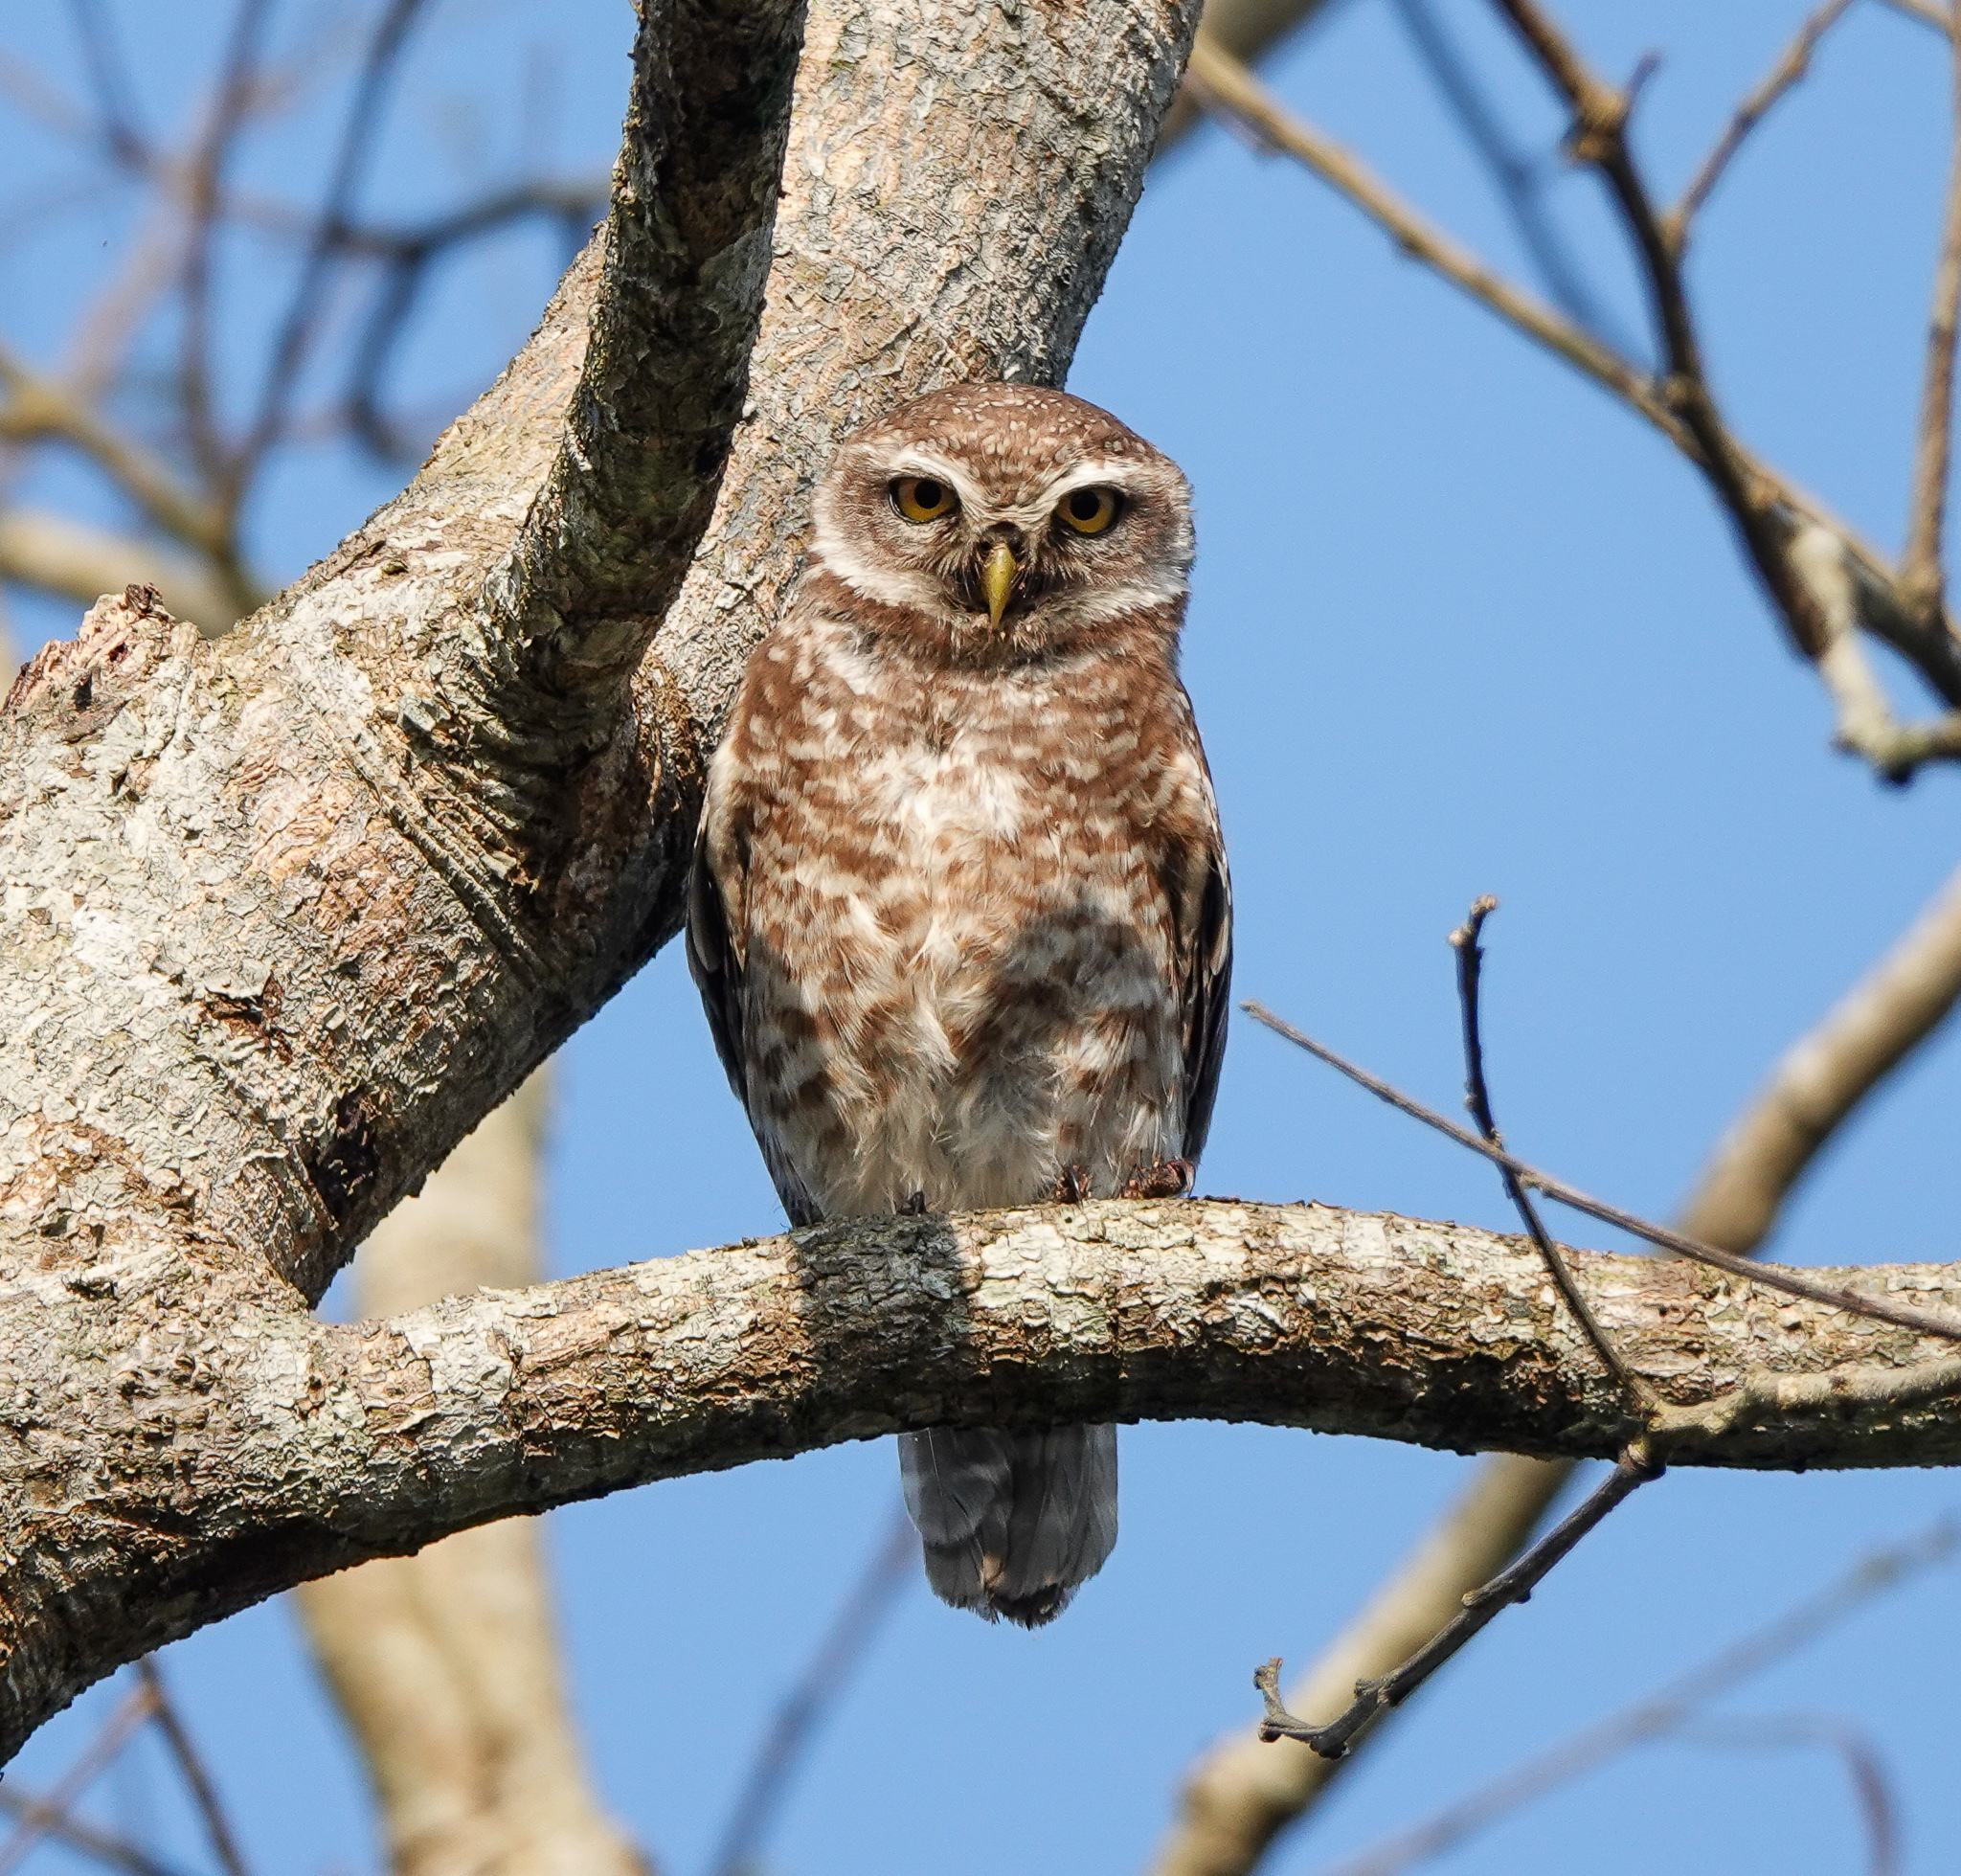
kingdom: Animalia
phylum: Chordata
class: Aves
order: Strigiformes
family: Strigidae
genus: Athene
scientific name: Athene brama
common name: Spotted owlet
